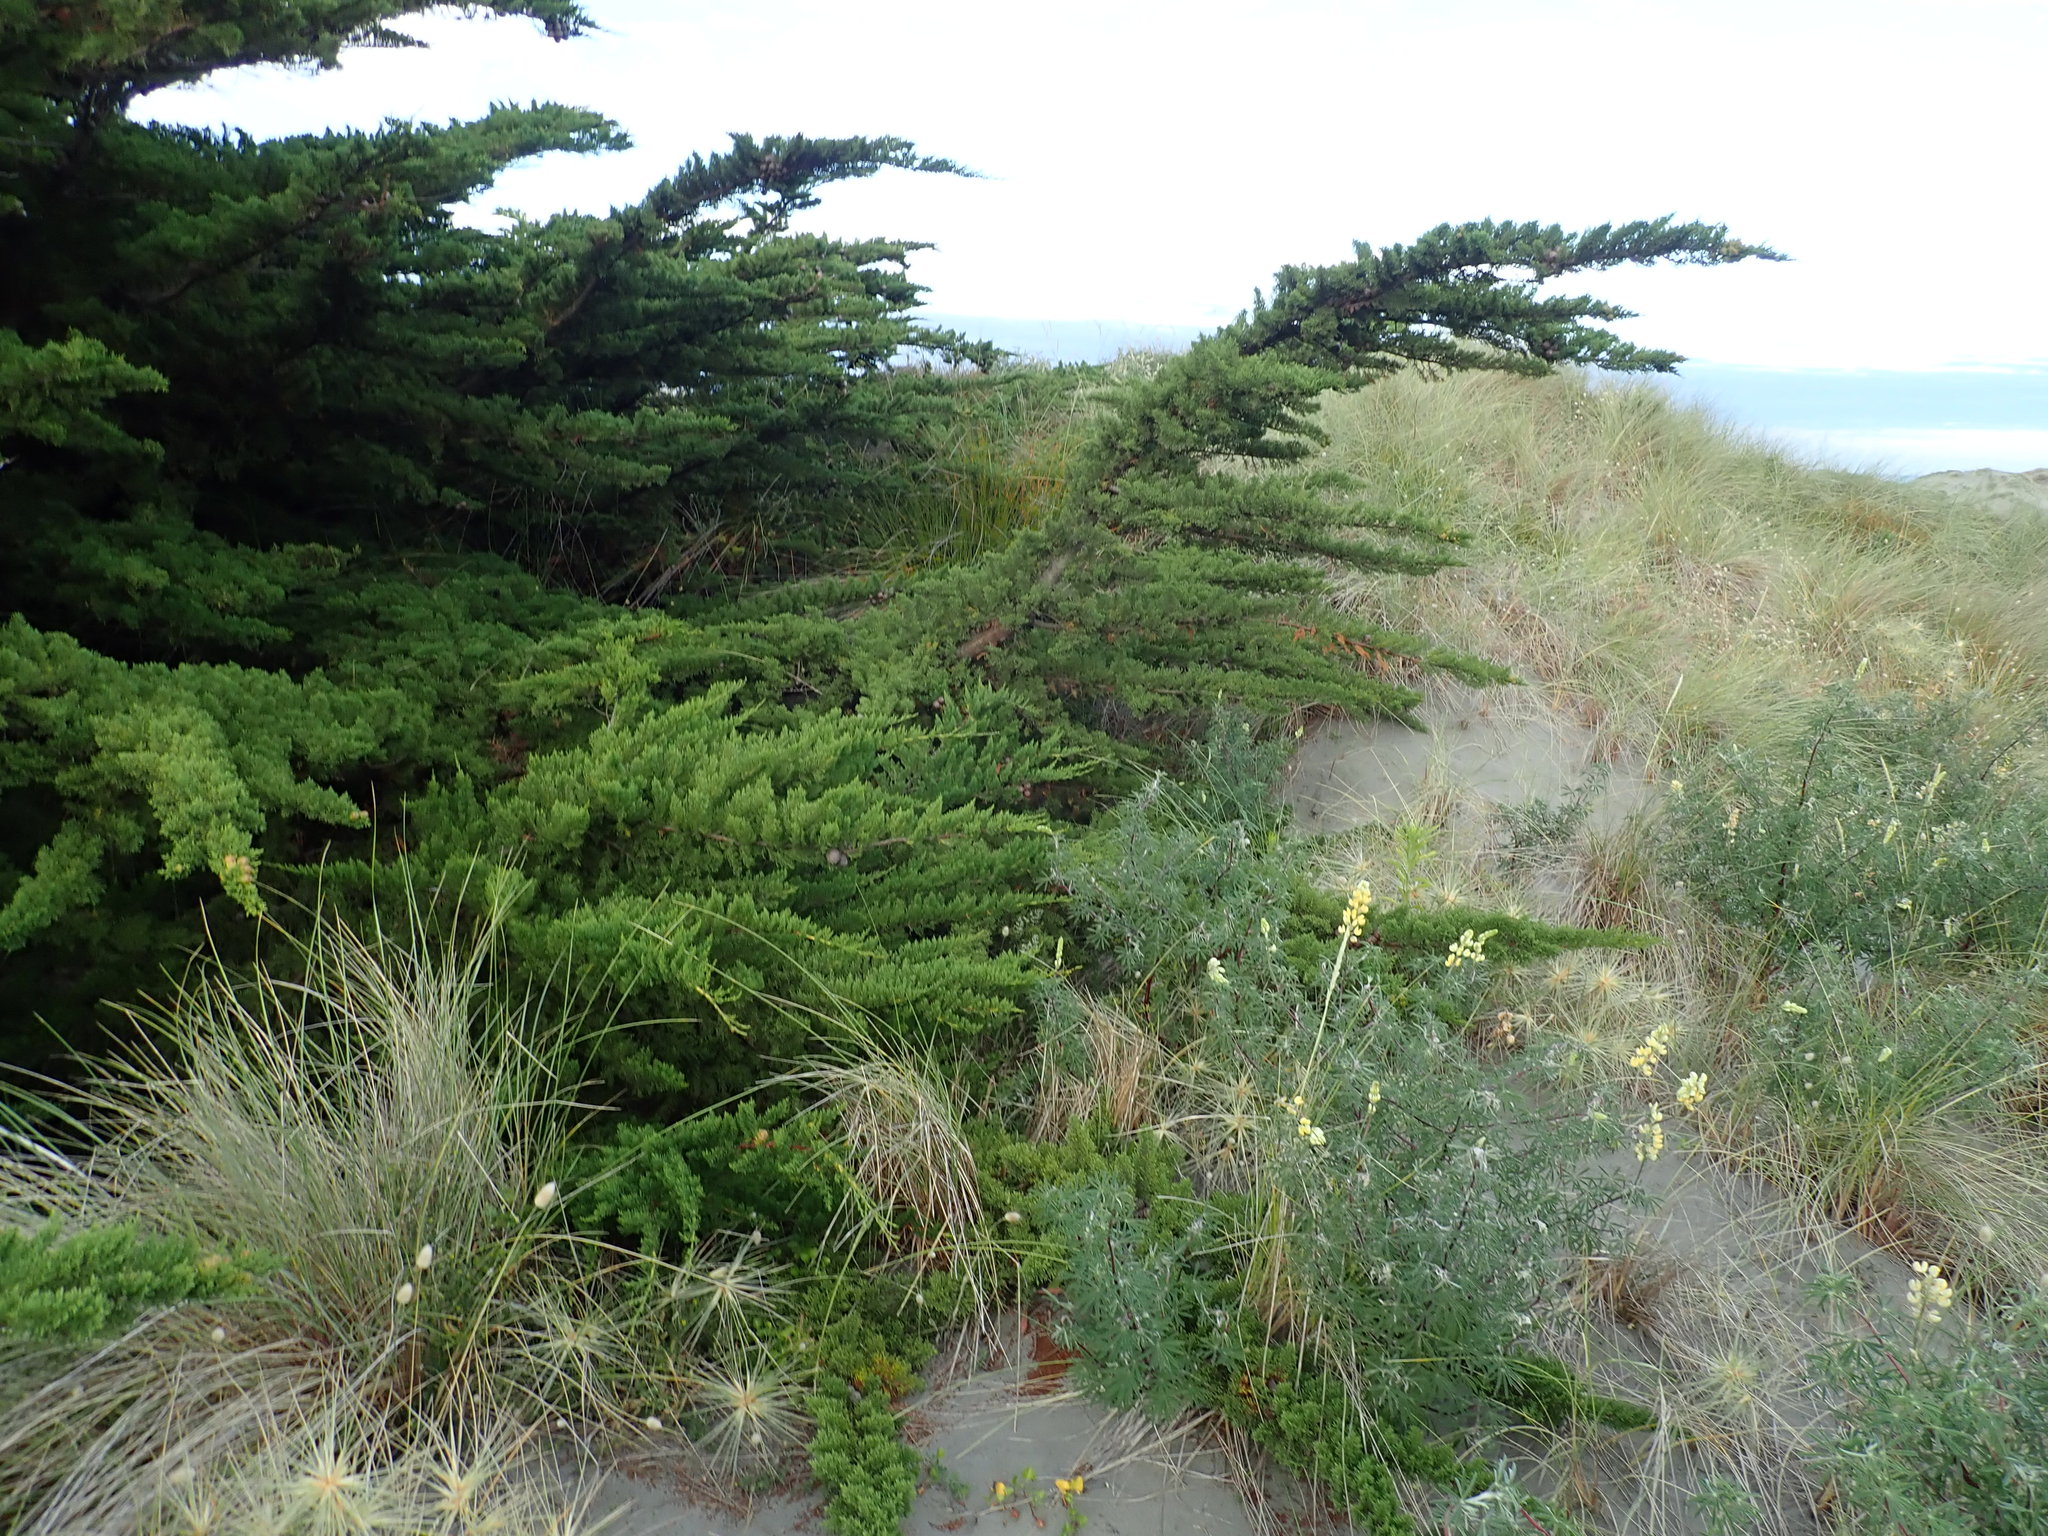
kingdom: Plantae
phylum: Tracheophyta
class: Pinopsida
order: Pinales
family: Cupressaceae
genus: Cupressus
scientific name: Cupressus macrocarpa
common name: Monterey cypress
